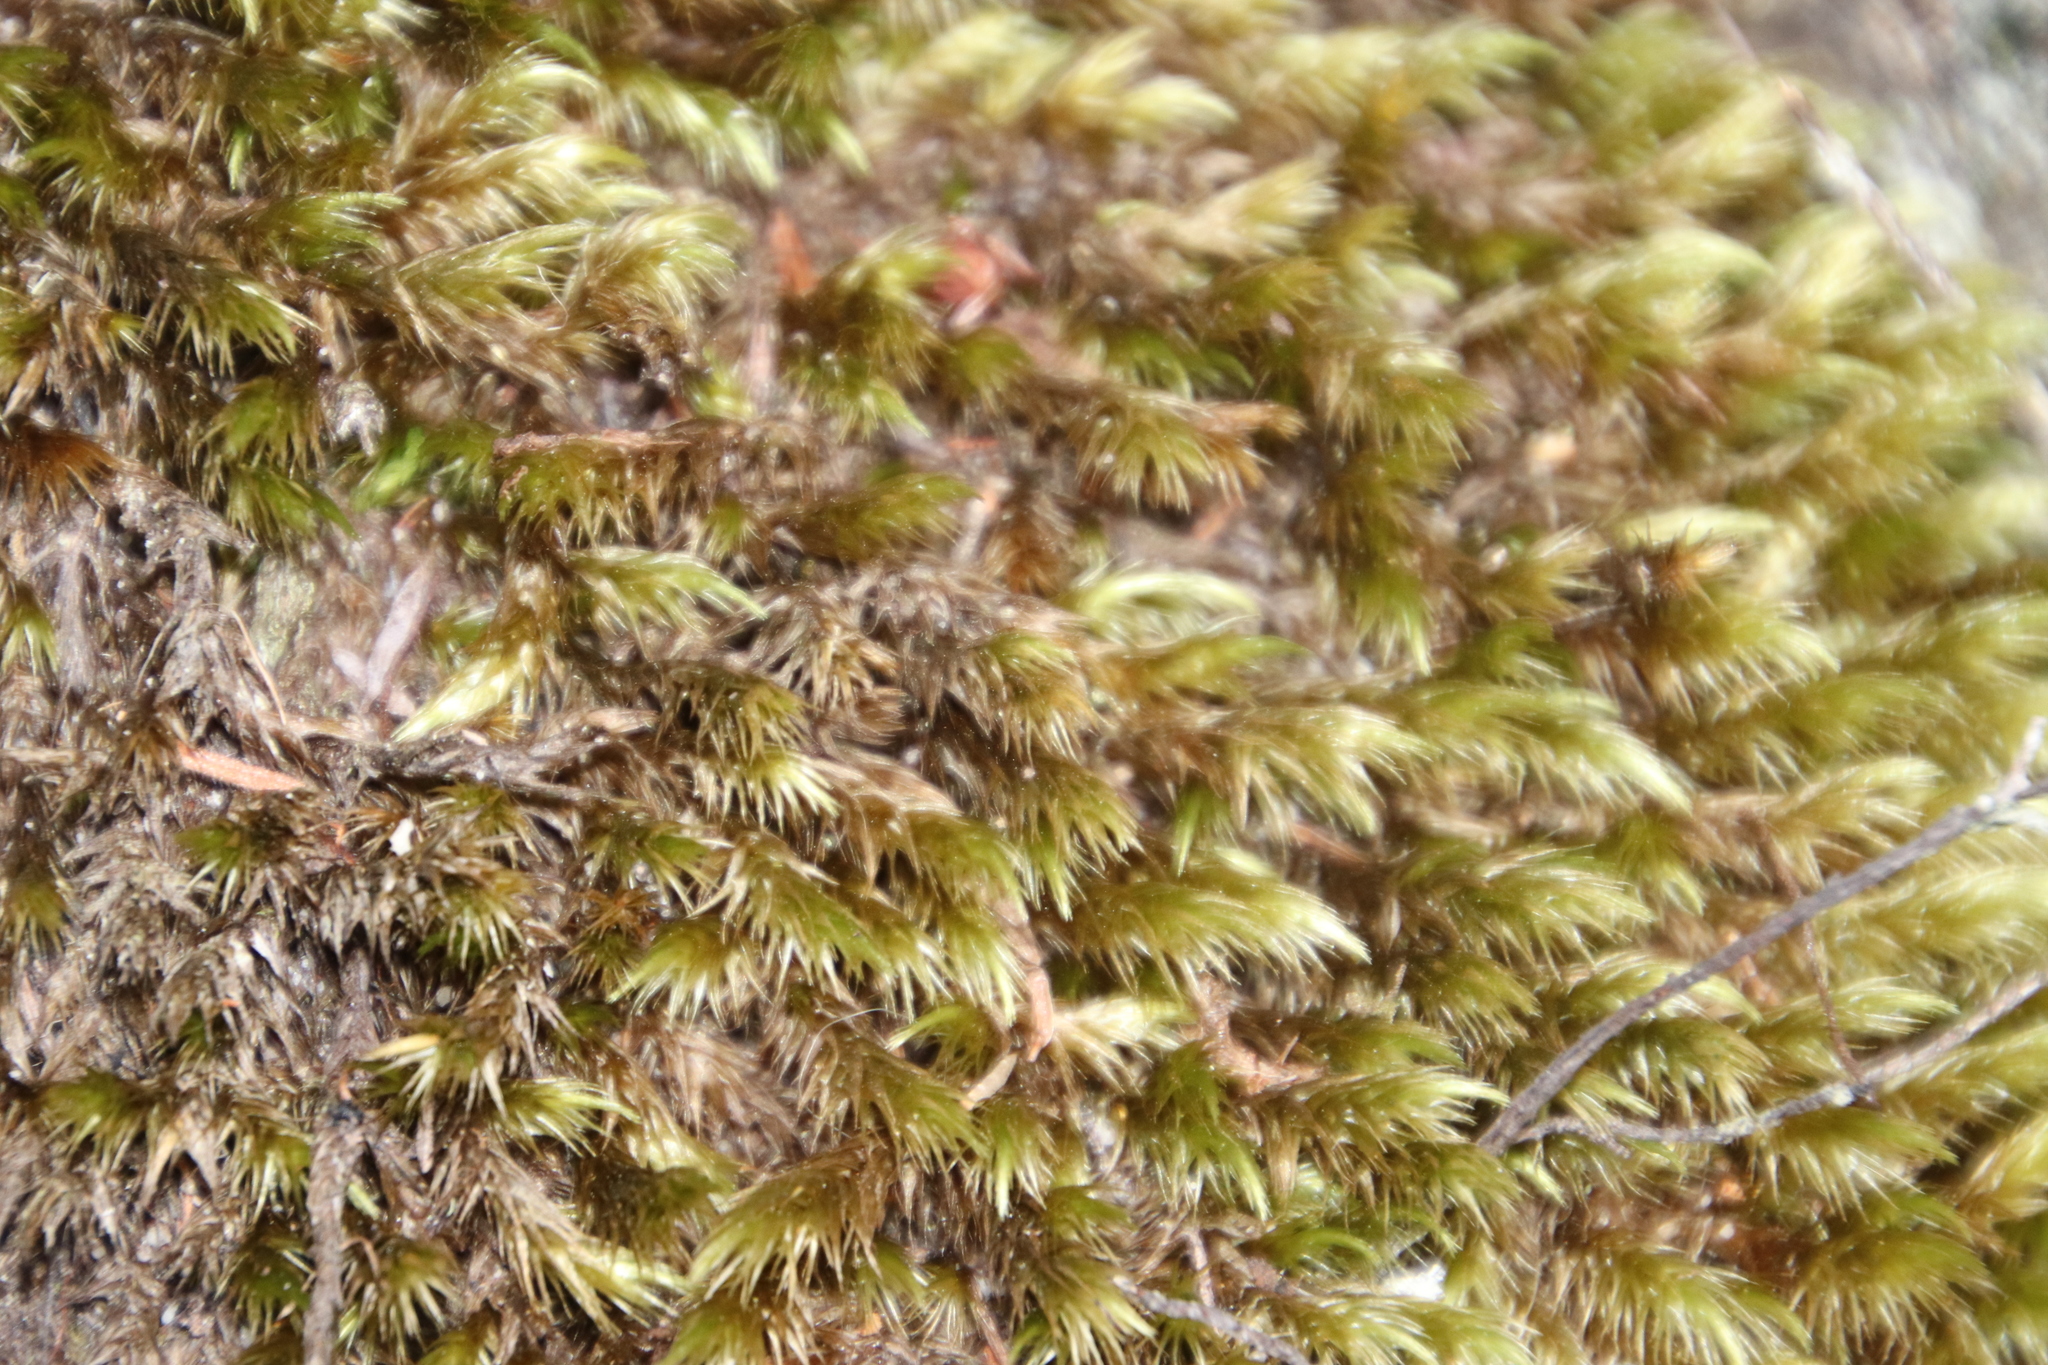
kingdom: Plantae
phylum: Bryophyta
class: Bryopsida
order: Dicranales
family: Dicranaceae
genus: Dicranoloma
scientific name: Dicranoloma billardieri
